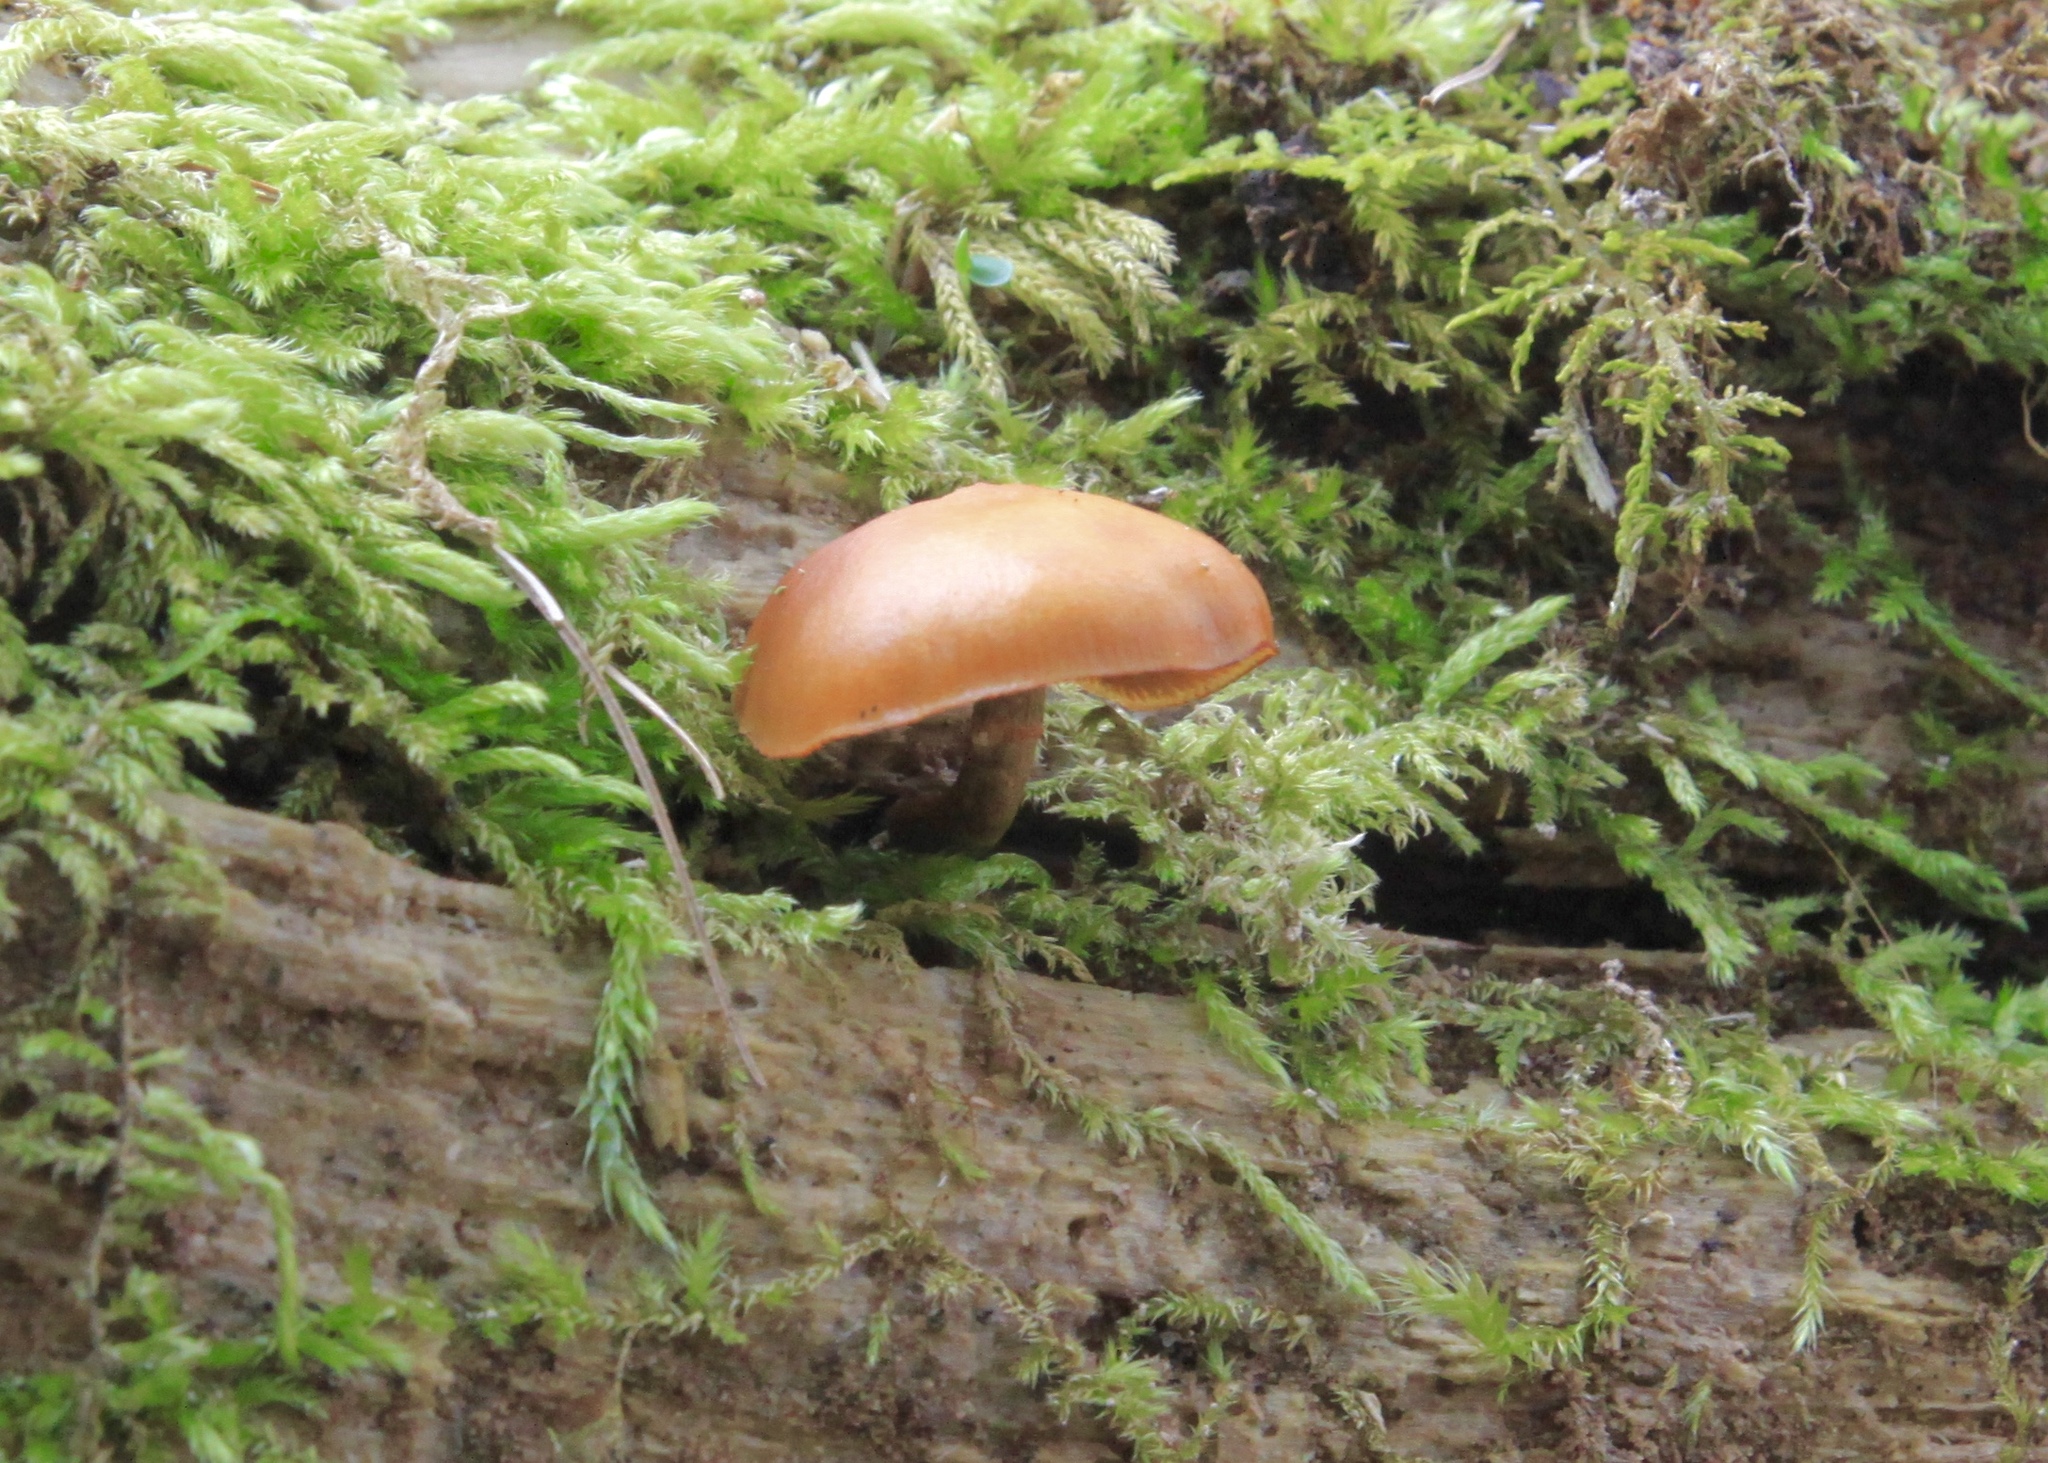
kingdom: Fungi
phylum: Basidiomycota
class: Agaricomycetes
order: Agaricales
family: Hymenogastraceae
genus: Galerina
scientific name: Galerina marginata
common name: Funeral bell
